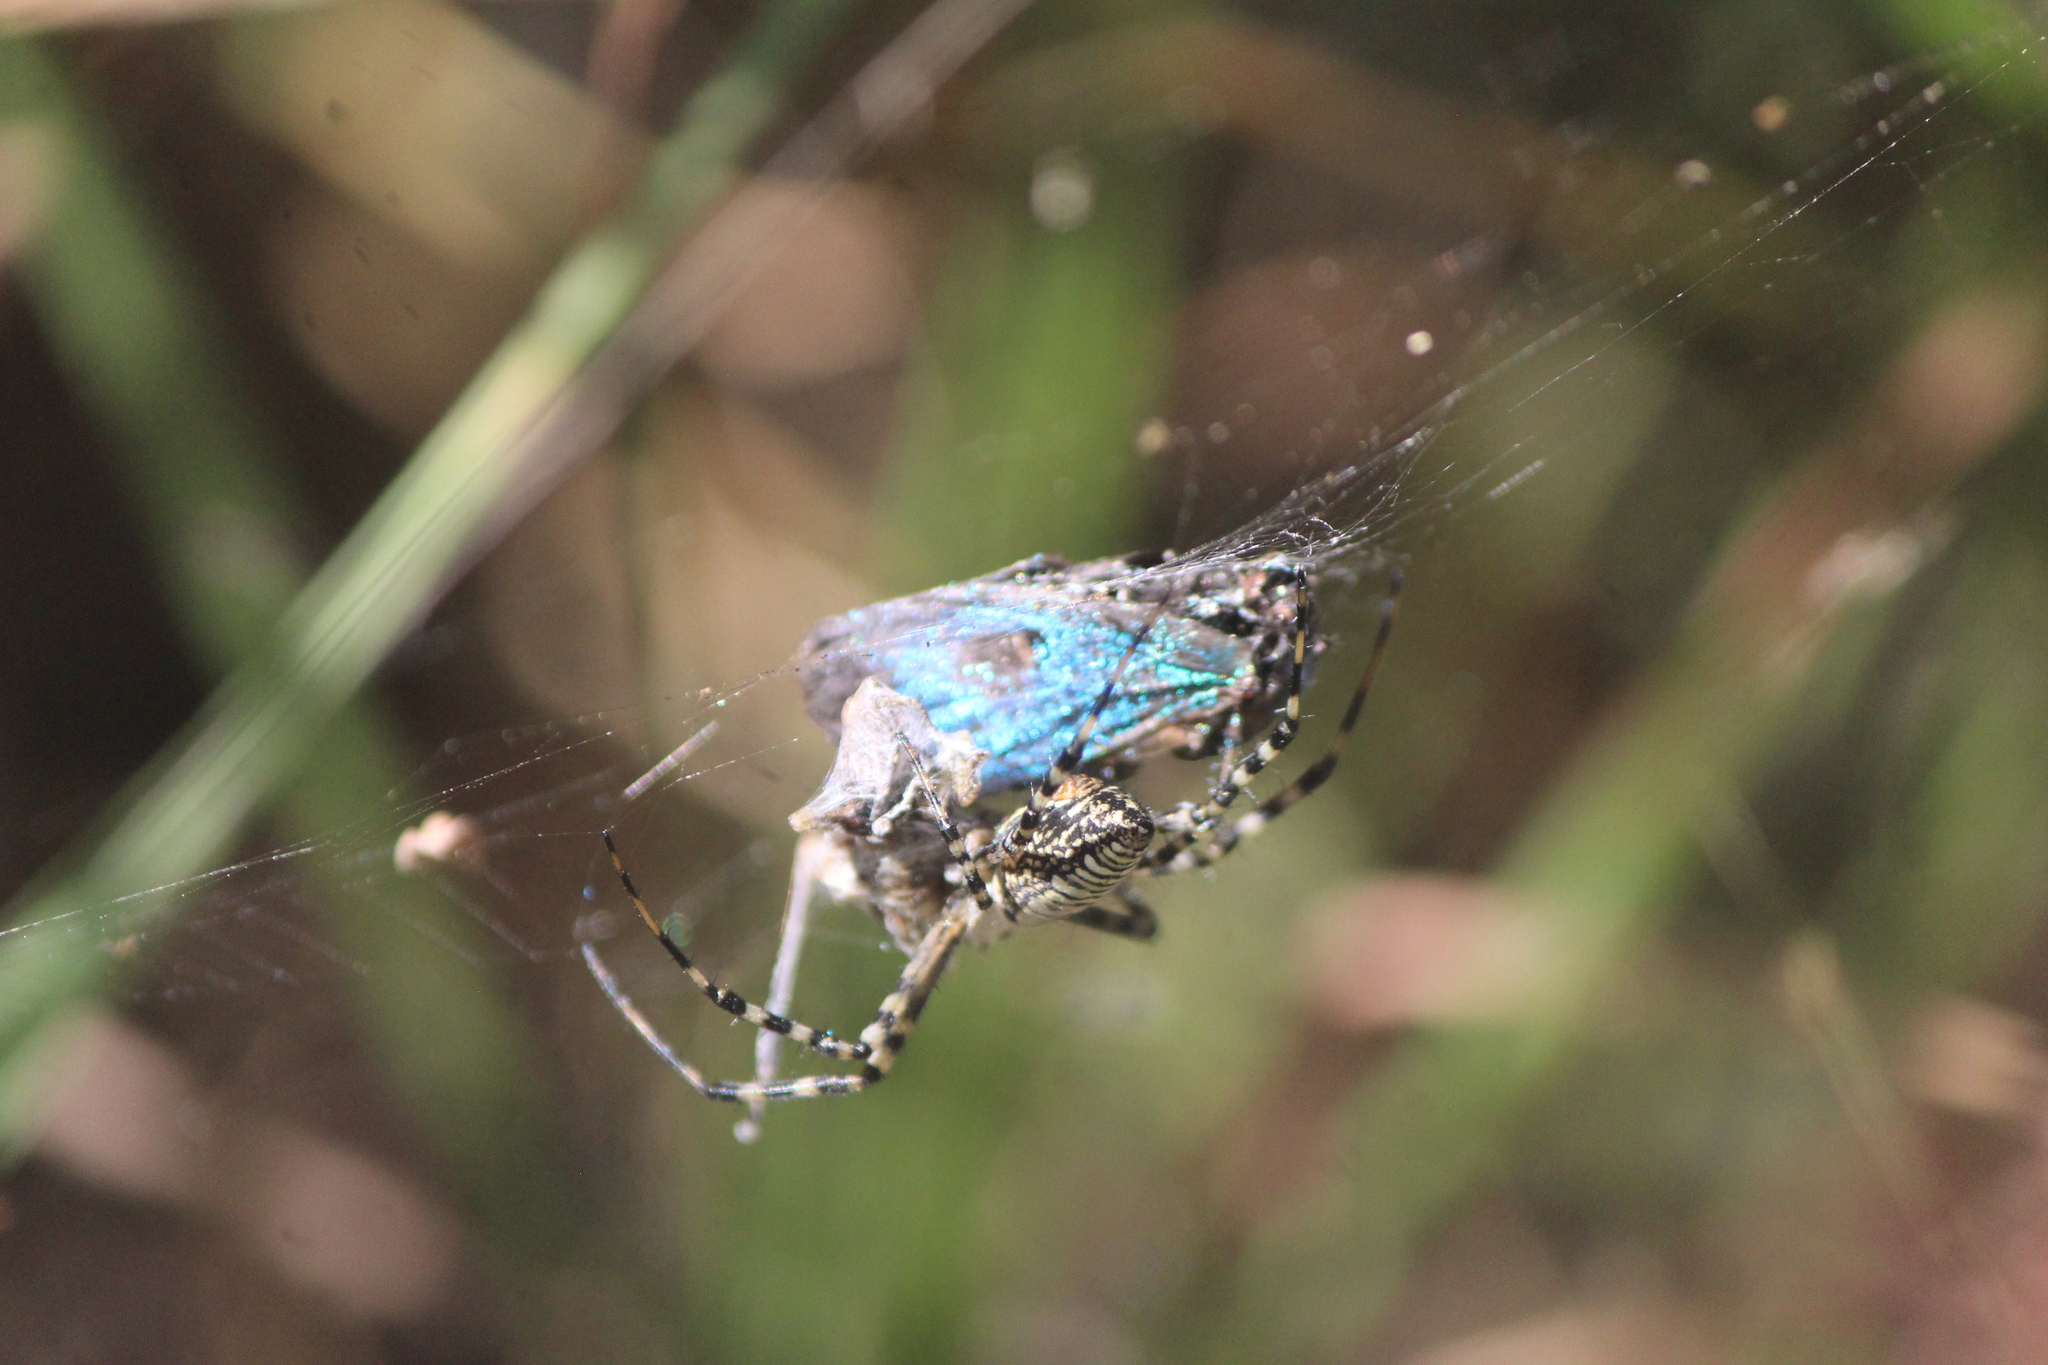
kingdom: Animalia
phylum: Arthropoda
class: Arachnida
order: Araneae
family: Araneidae
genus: Argiope
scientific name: Argiope trifasciata
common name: Banded garden spider
